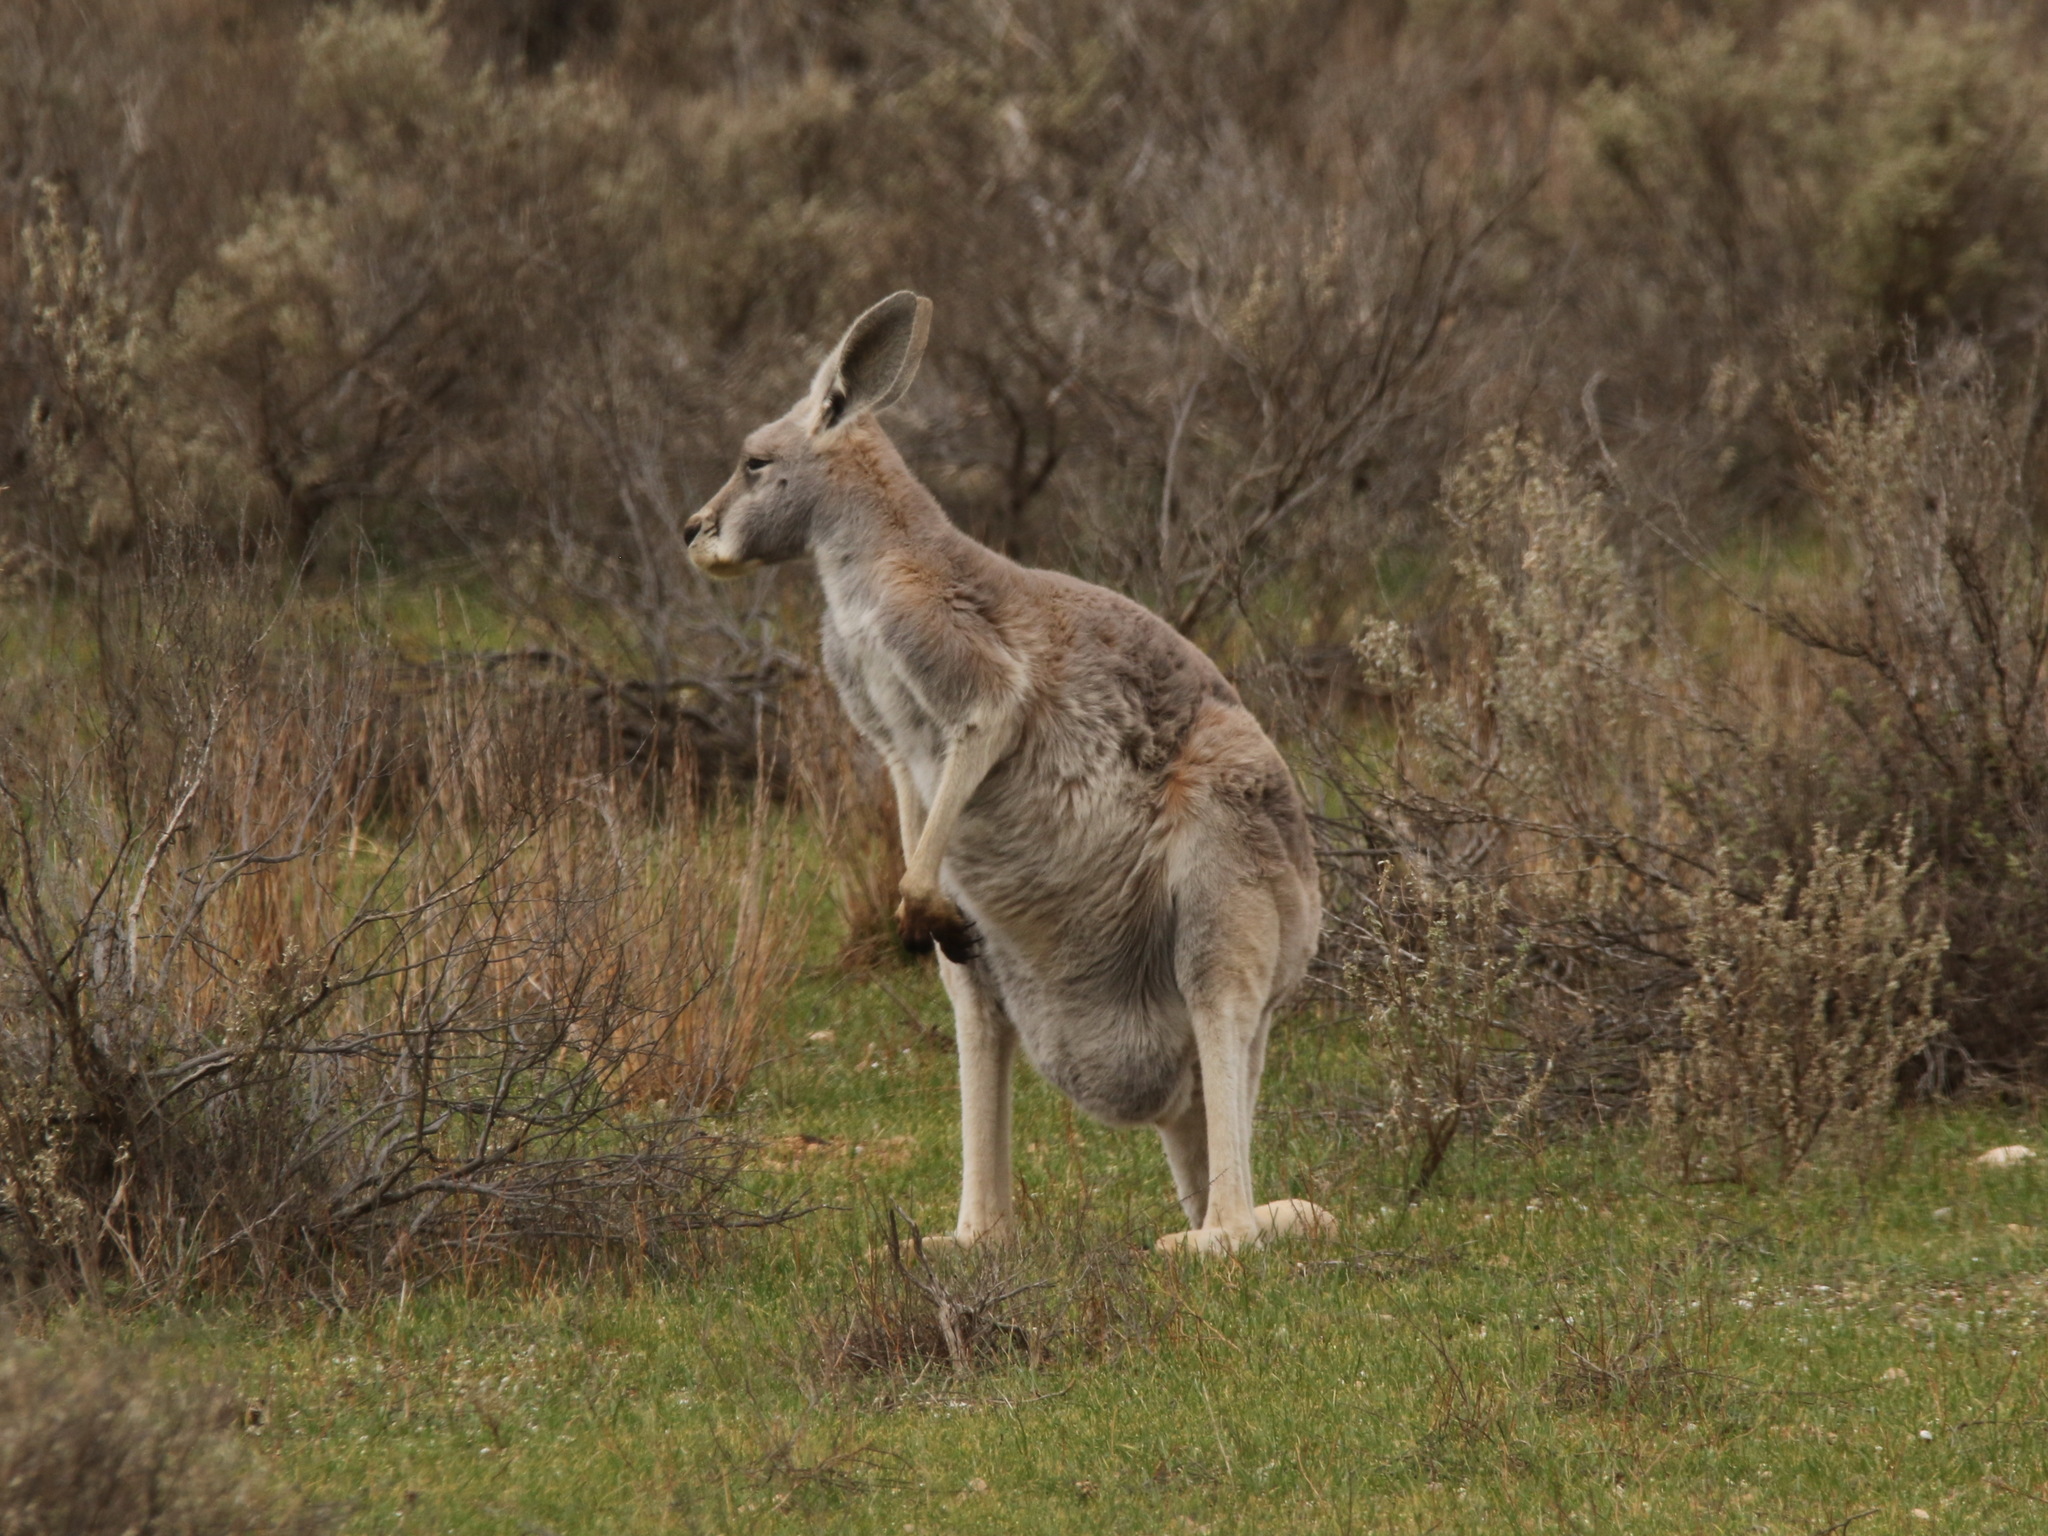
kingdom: Animalia
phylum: Chordata
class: Mammalia
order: Diprotodontia
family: Macropodidae
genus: Macropus
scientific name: Macropus rufus
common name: Red kangaroo
